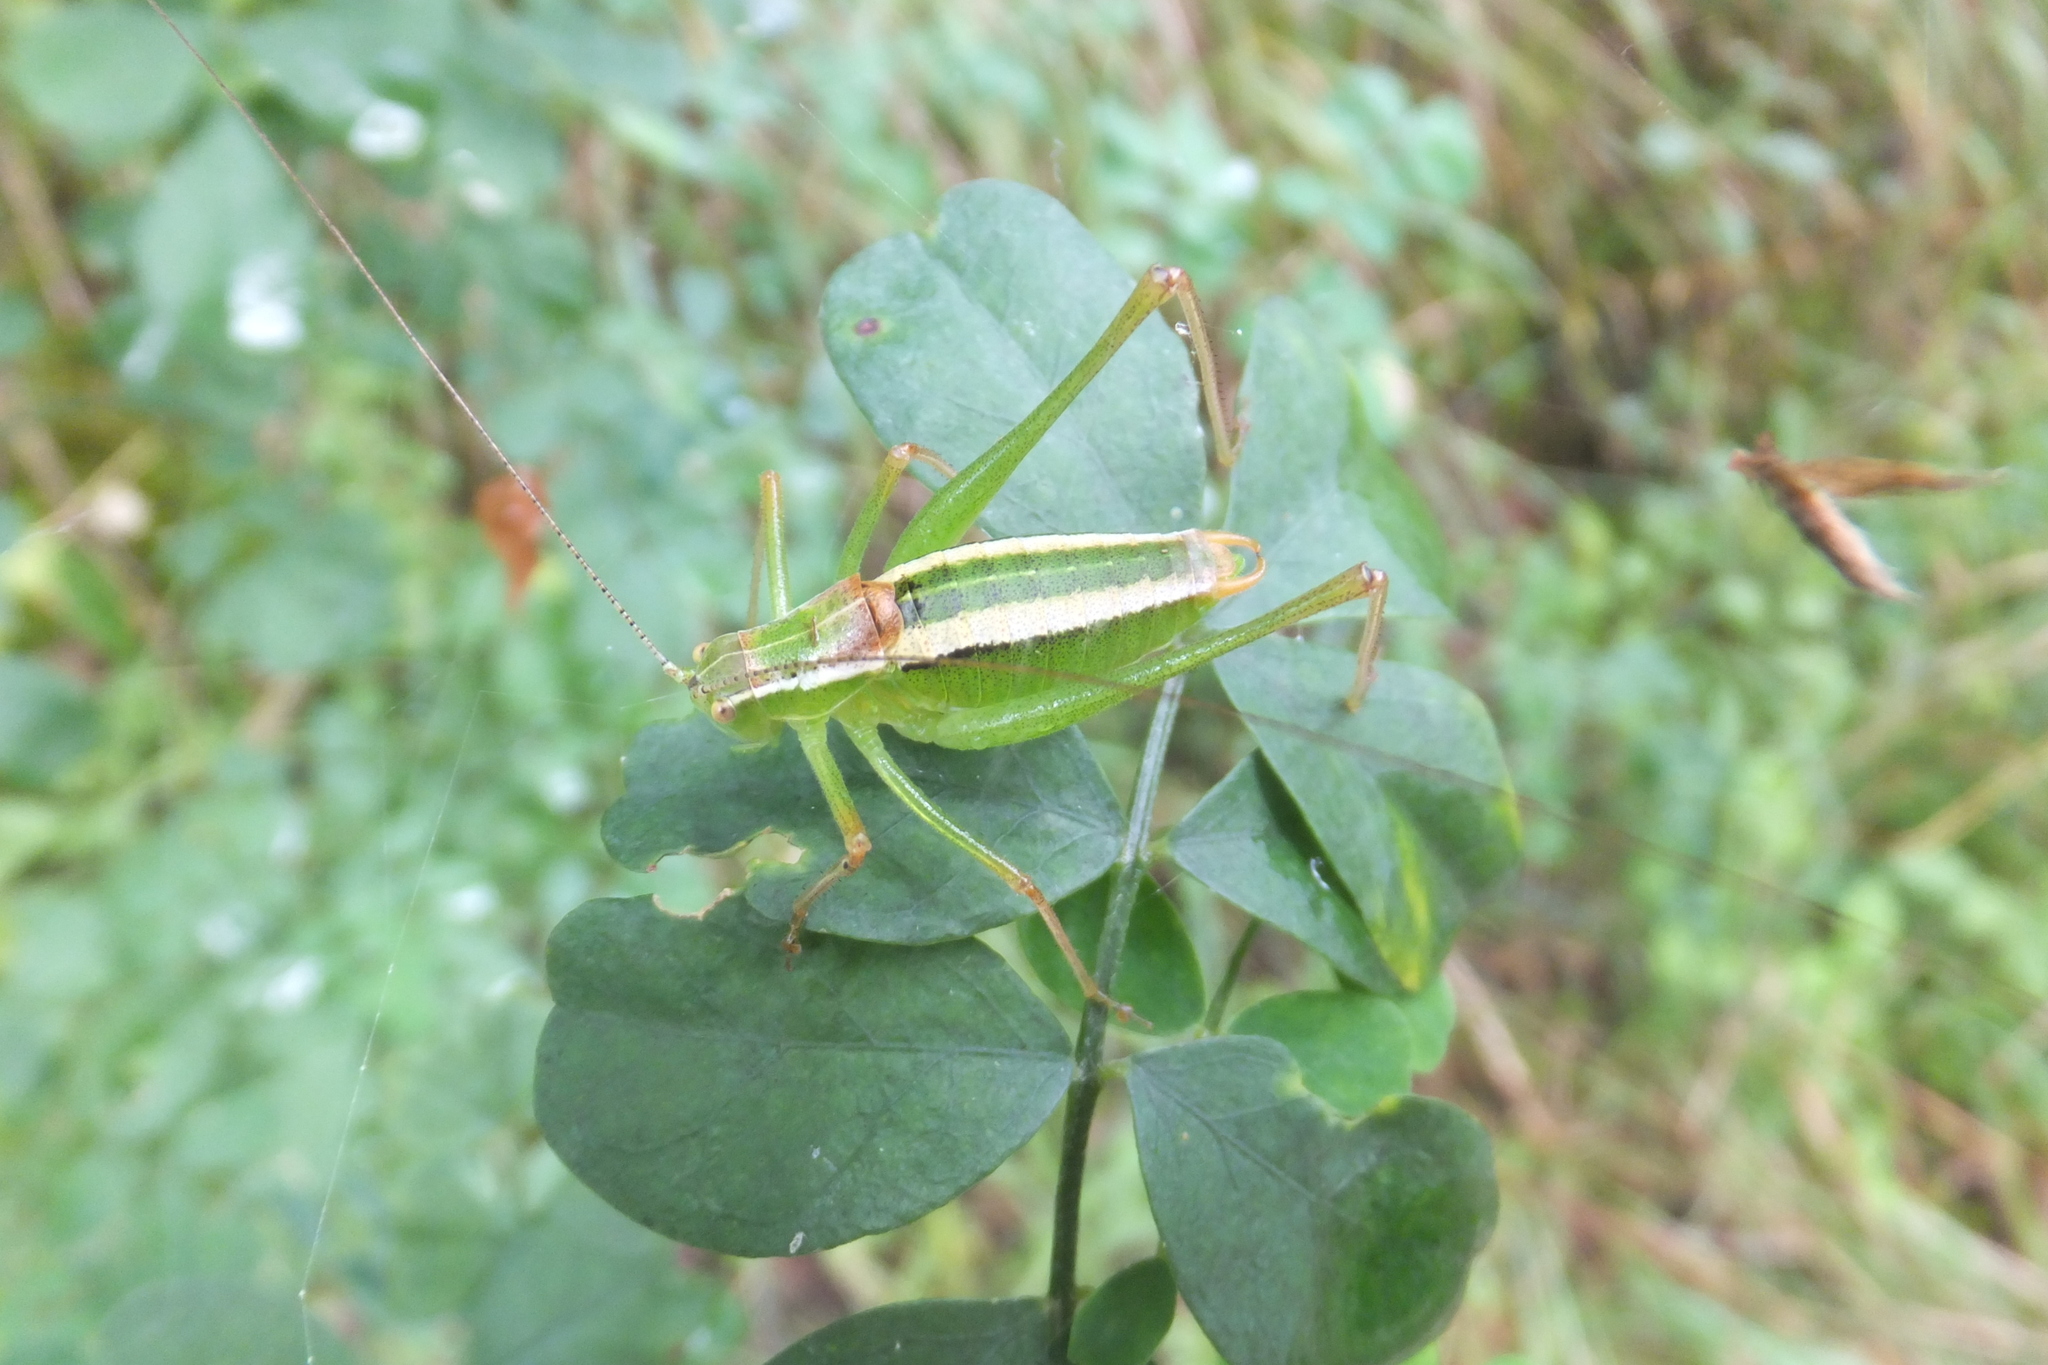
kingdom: Animalia
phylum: Arthropoda
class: Insecta
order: Orthoptera
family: Tettigoniidae
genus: Poecilimon
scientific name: Poecilimon superbus
